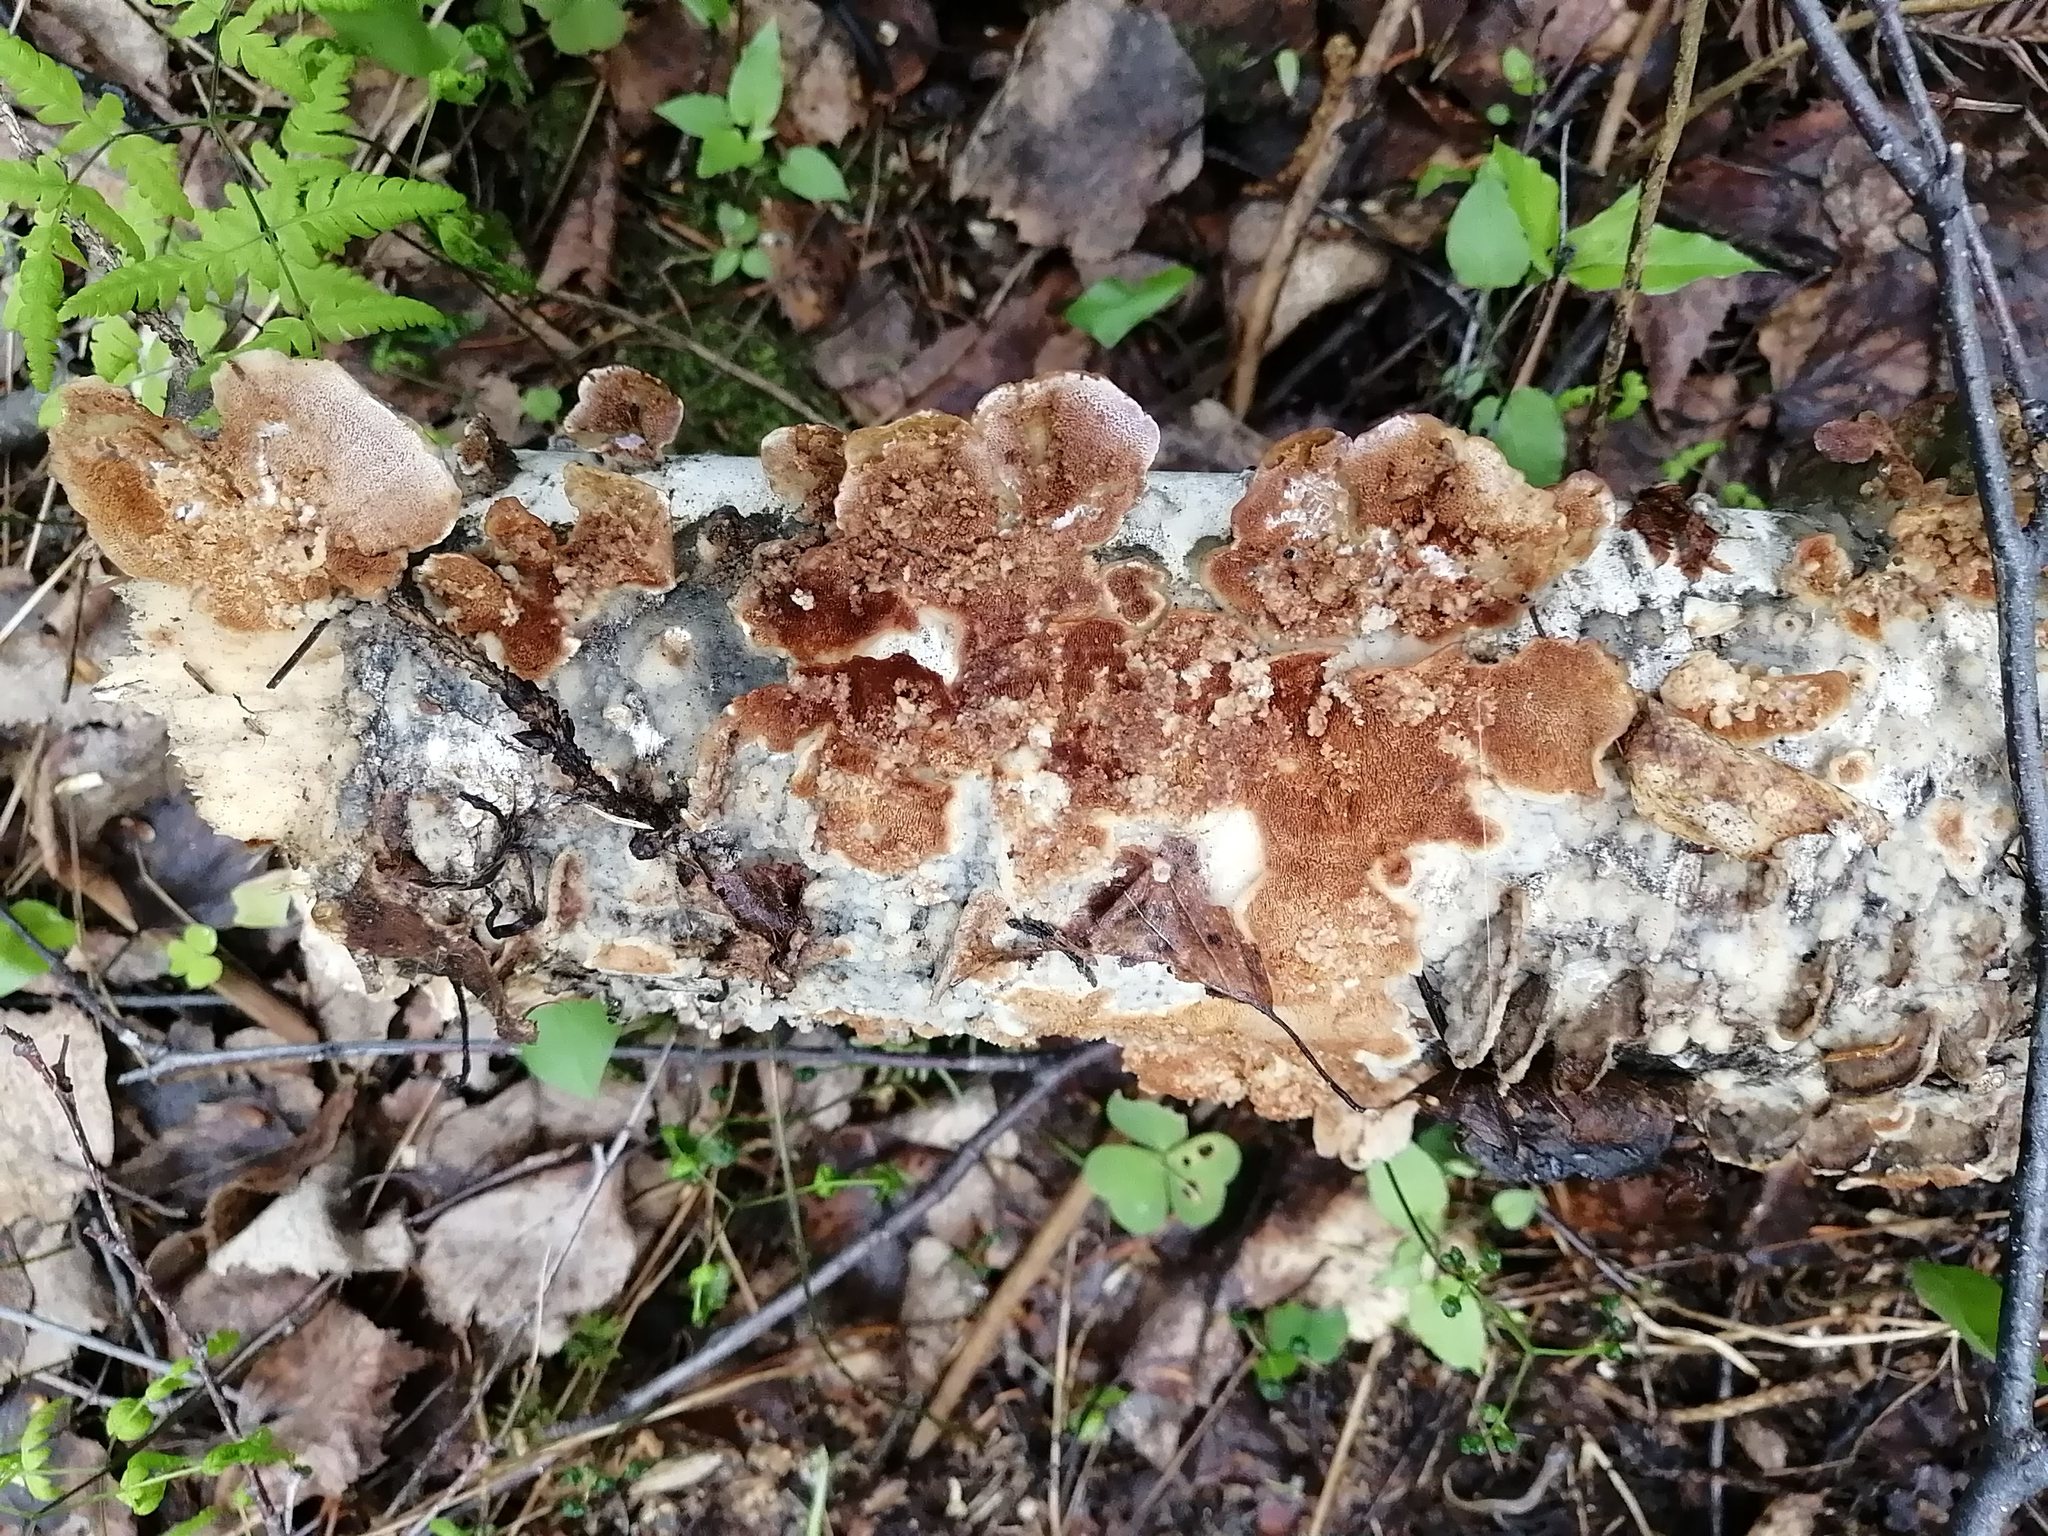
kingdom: Fungi
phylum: Basidiomycota
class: Agaricomycetes
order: Hymenochaetales
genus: Trichaptum
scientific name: Trichaptum biforme
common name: Violet-toothed polypore
